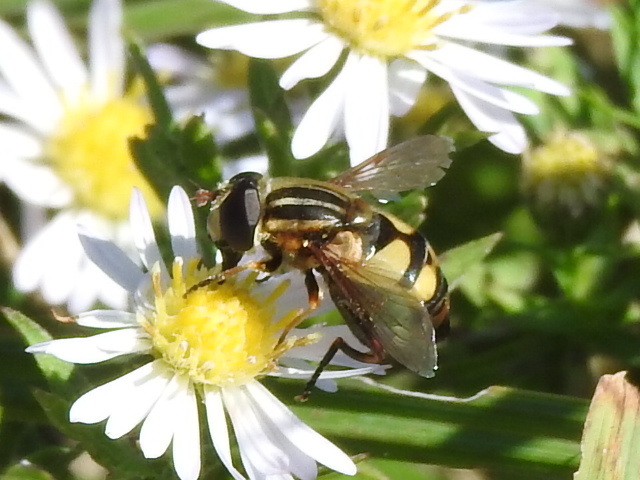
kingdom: Animalia
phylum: Arthropoda
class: Insecta
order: Diptera
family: Syrphidae
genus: Helophilus
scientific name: Helophilus fasciatus
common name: Narrow-headed marsh fly
